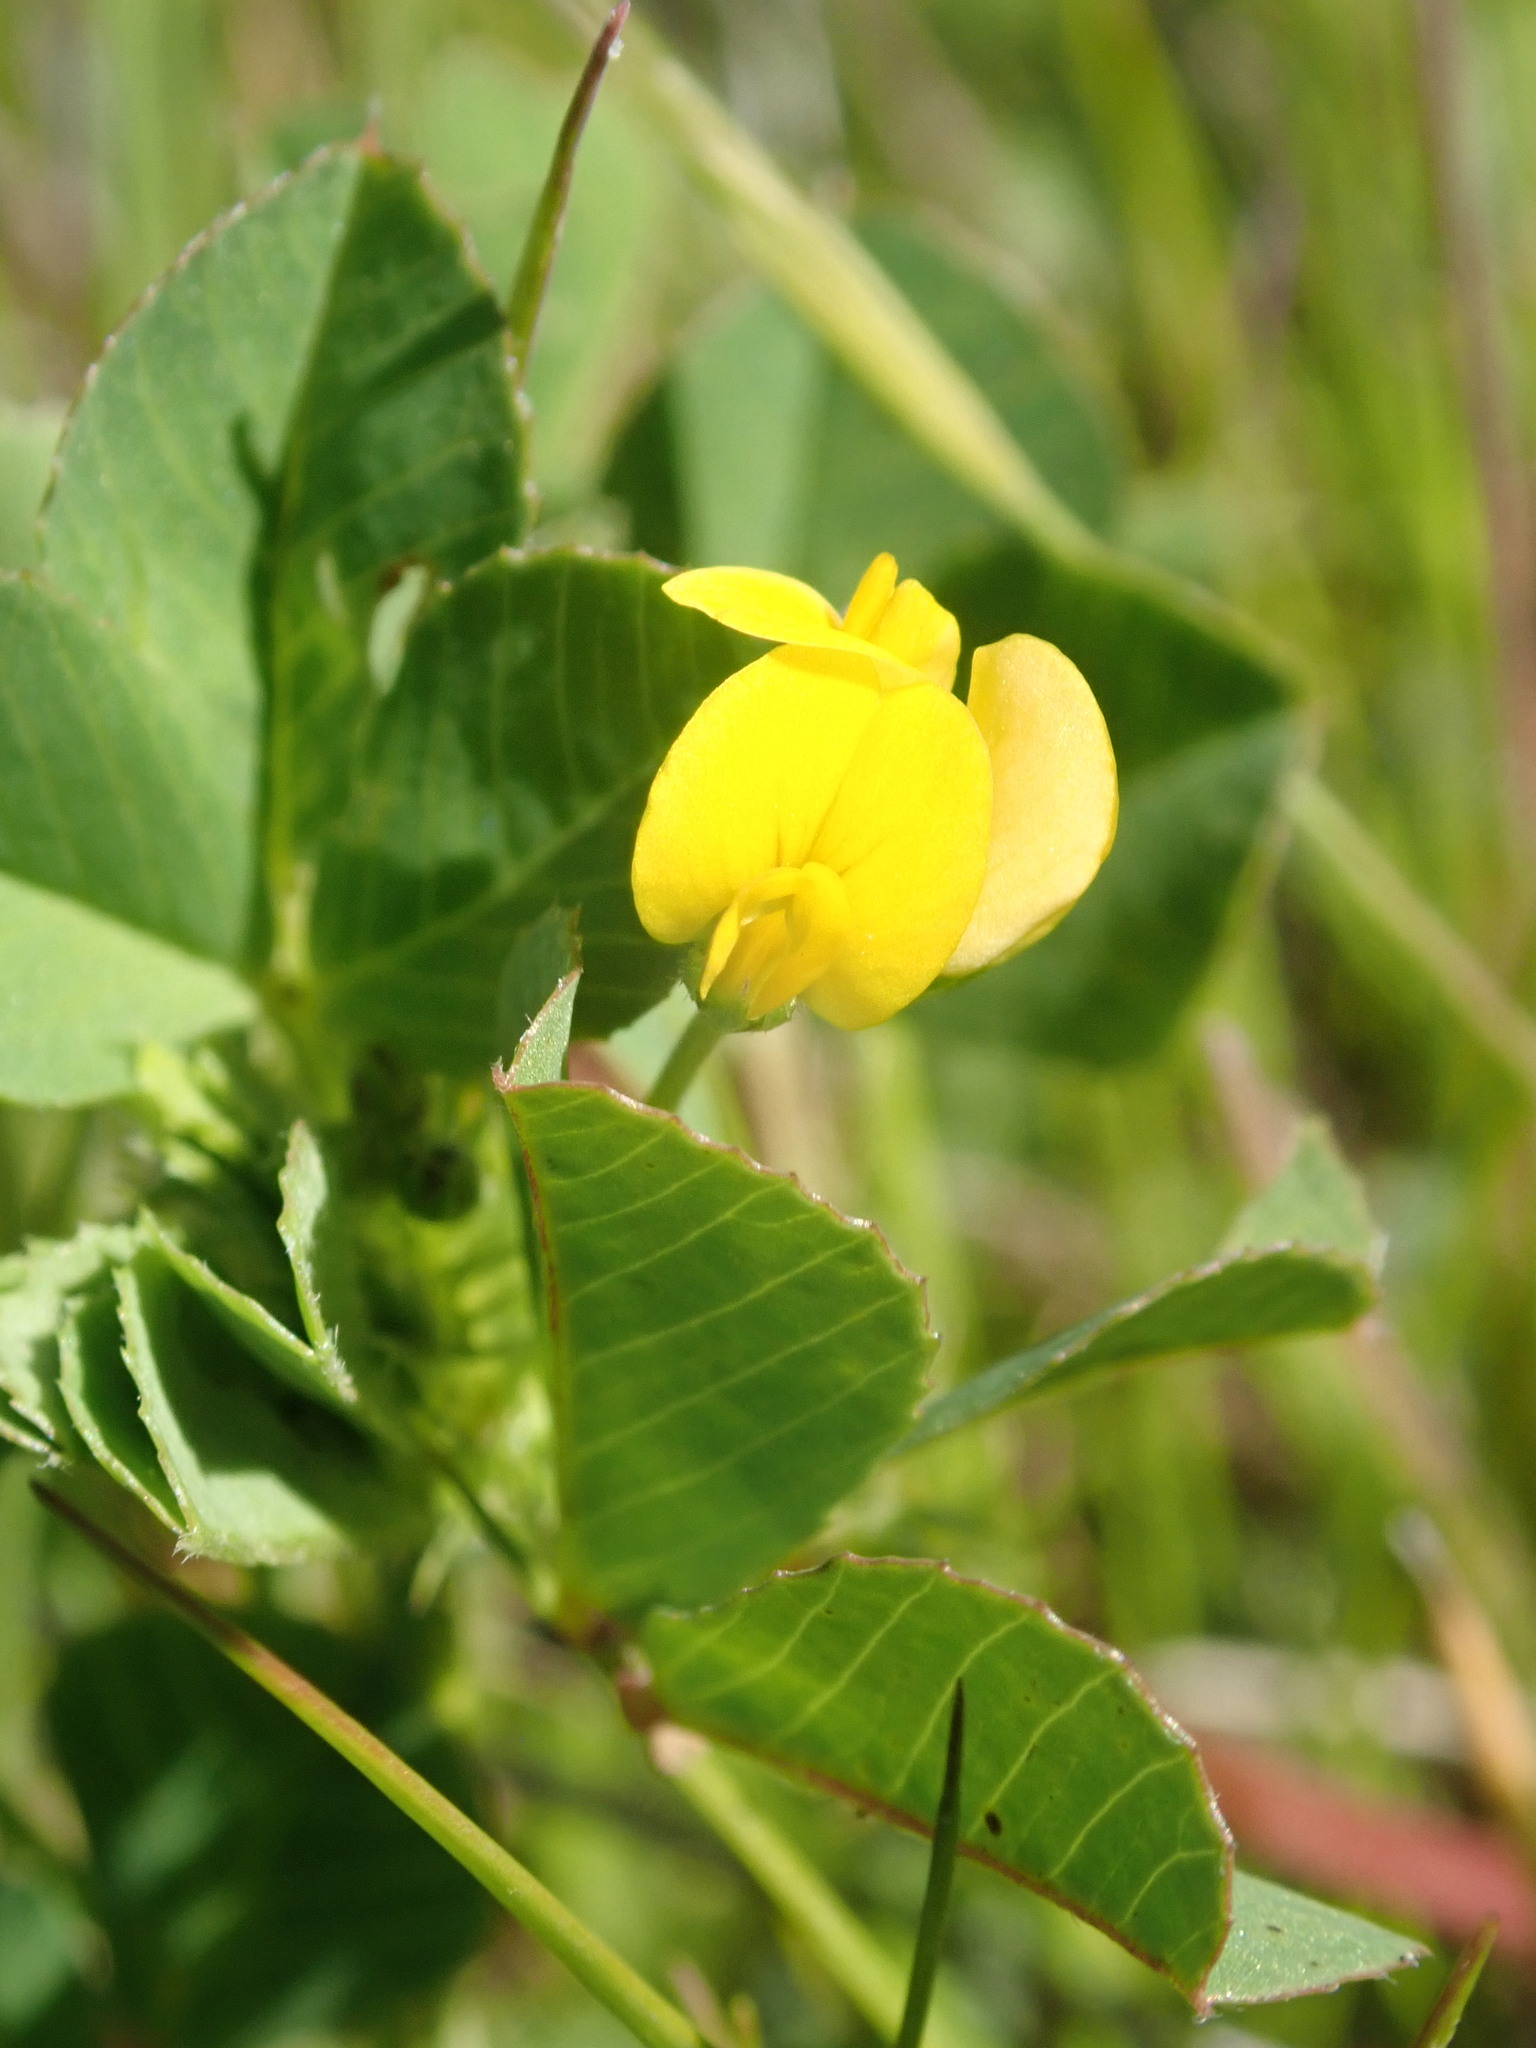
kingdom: Plantae
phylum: Tracheophyta
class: Magnoliopsida
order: Fabales
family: Fabaceae
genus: Medicago
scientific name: Medicago polymorpha
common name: Burclover
